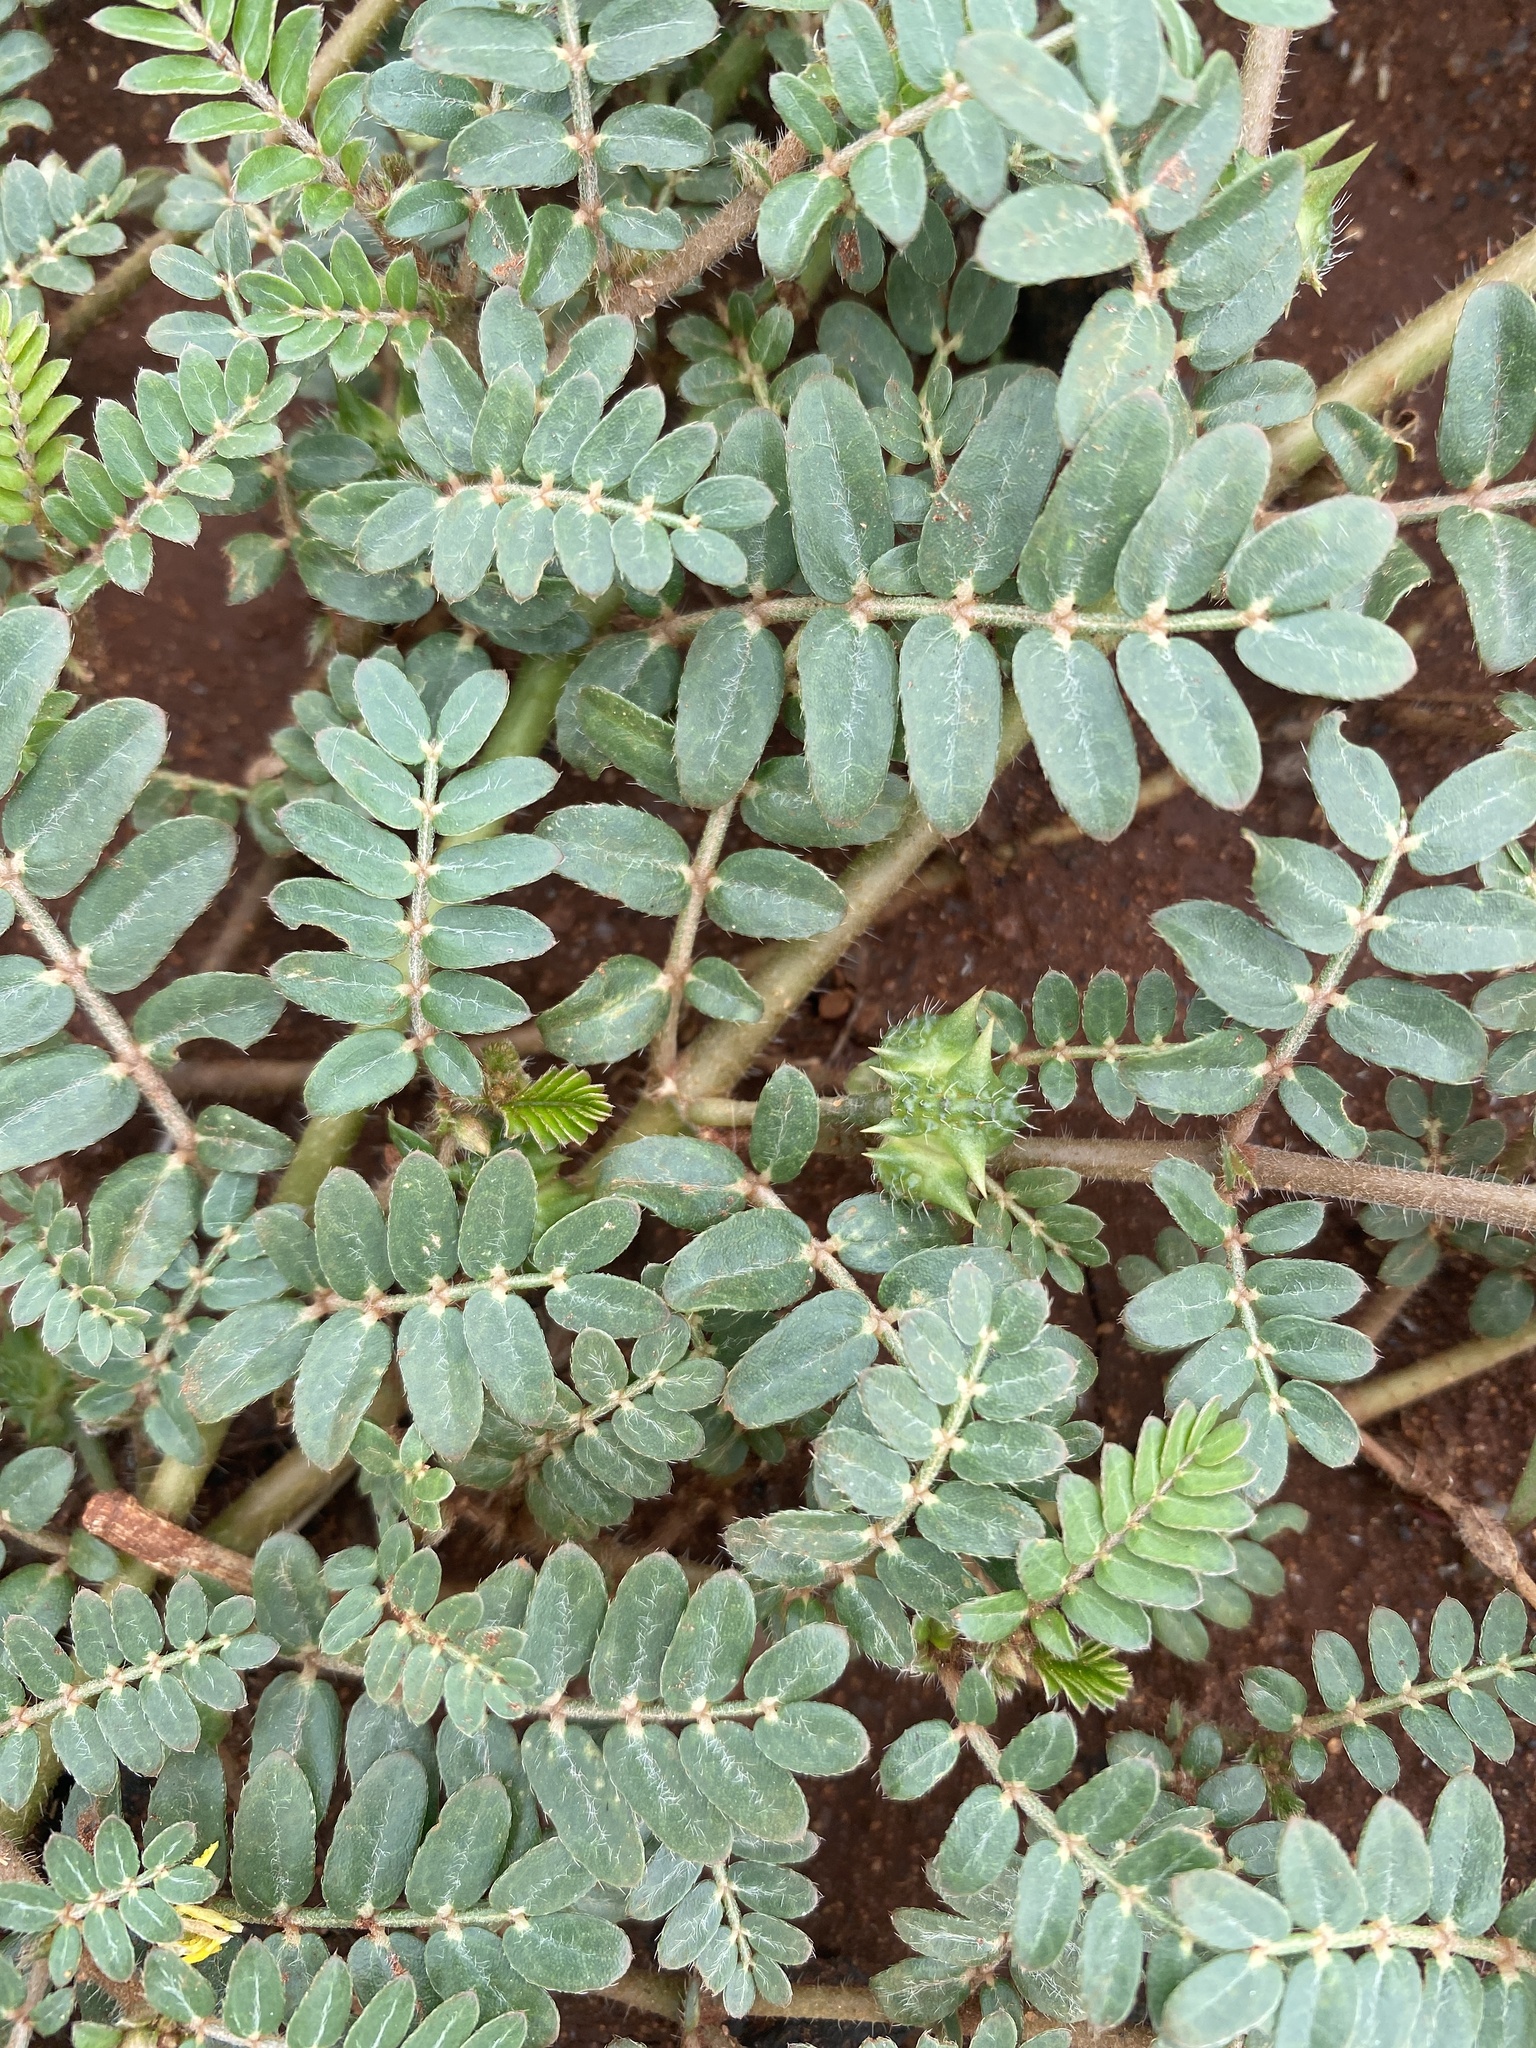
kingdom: Plantae
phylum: Tracheophyta
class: Magnoliopsida
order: Zygophyllales
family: Zygophyllaceae
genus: Tribulus
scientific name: Tribulus terrestris
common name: Puncturevine
